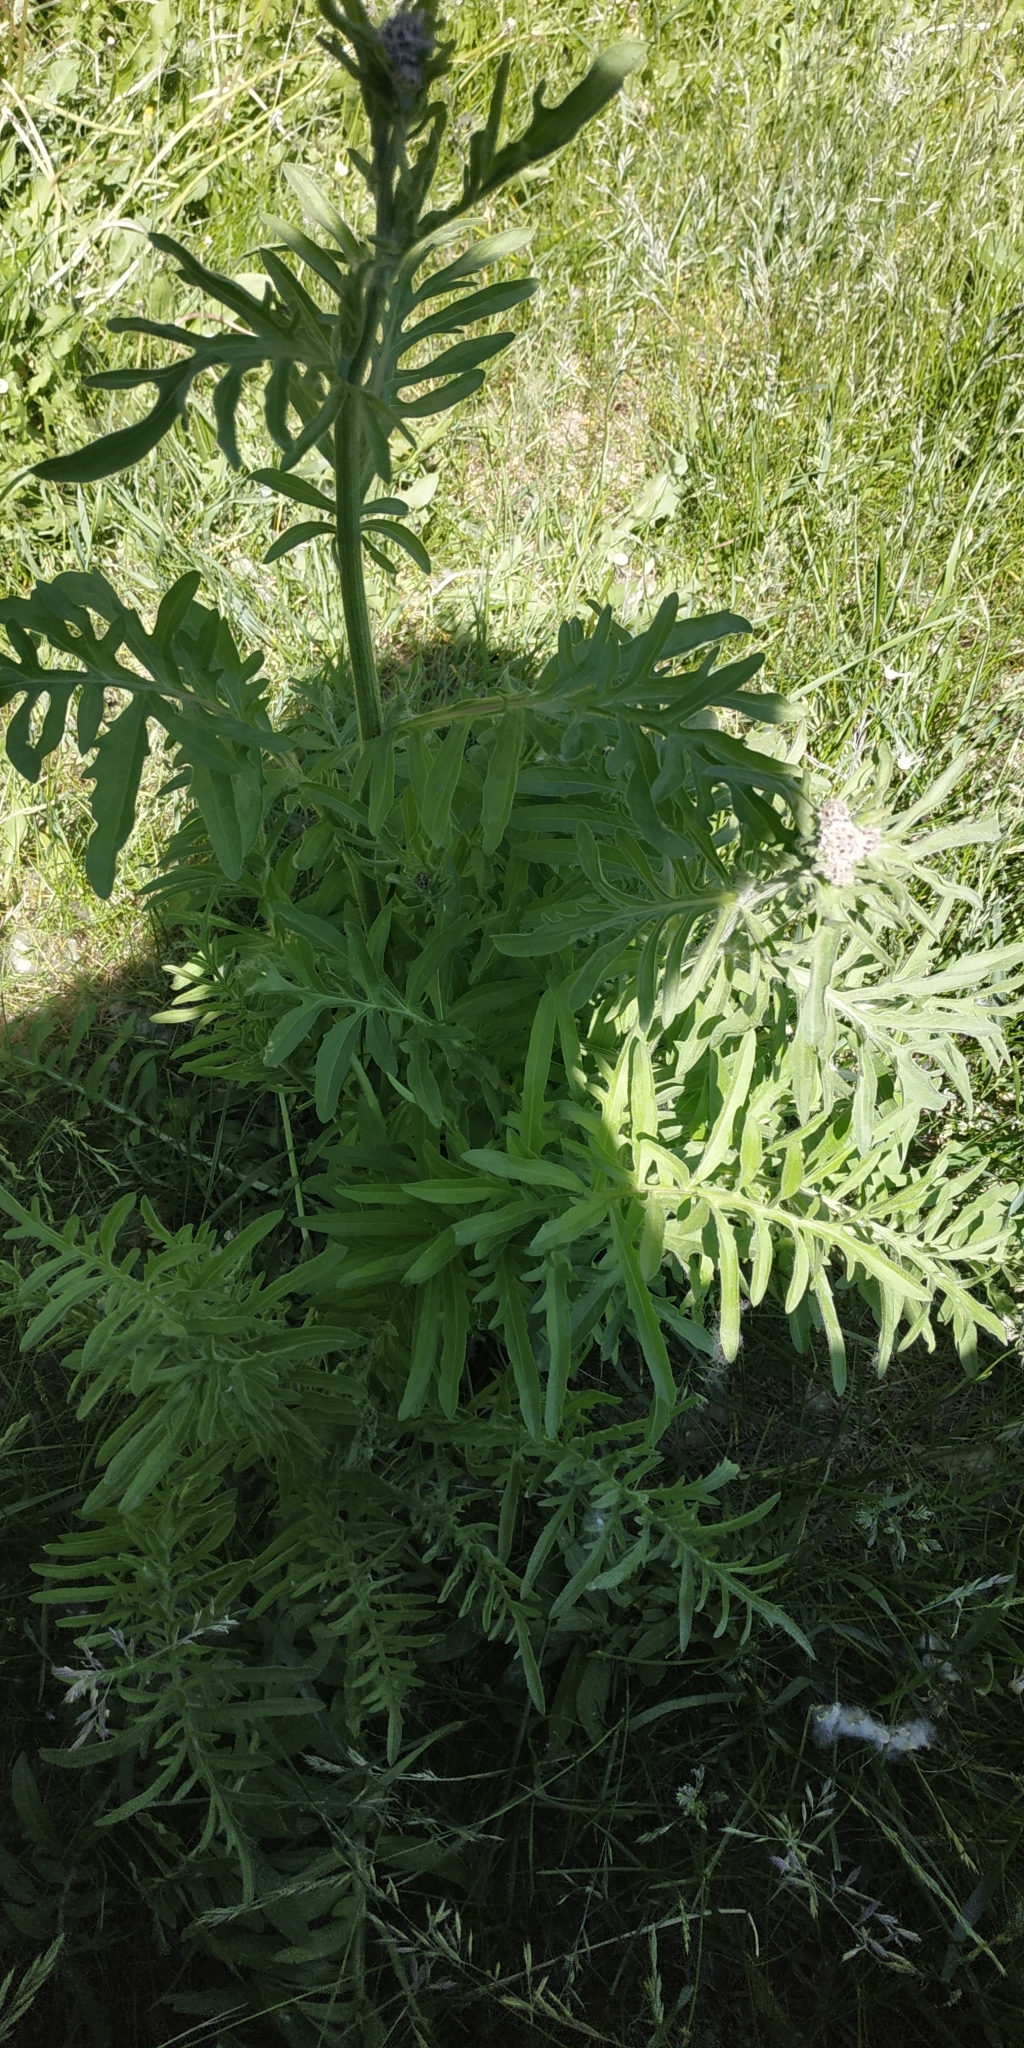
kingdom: Plantae
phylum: Tracheophyta
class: Magnoliopsida
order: Asterales
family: Asteraceae
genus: Centaurea
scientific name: Centaurea scabiosa
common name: Greater knapweed
